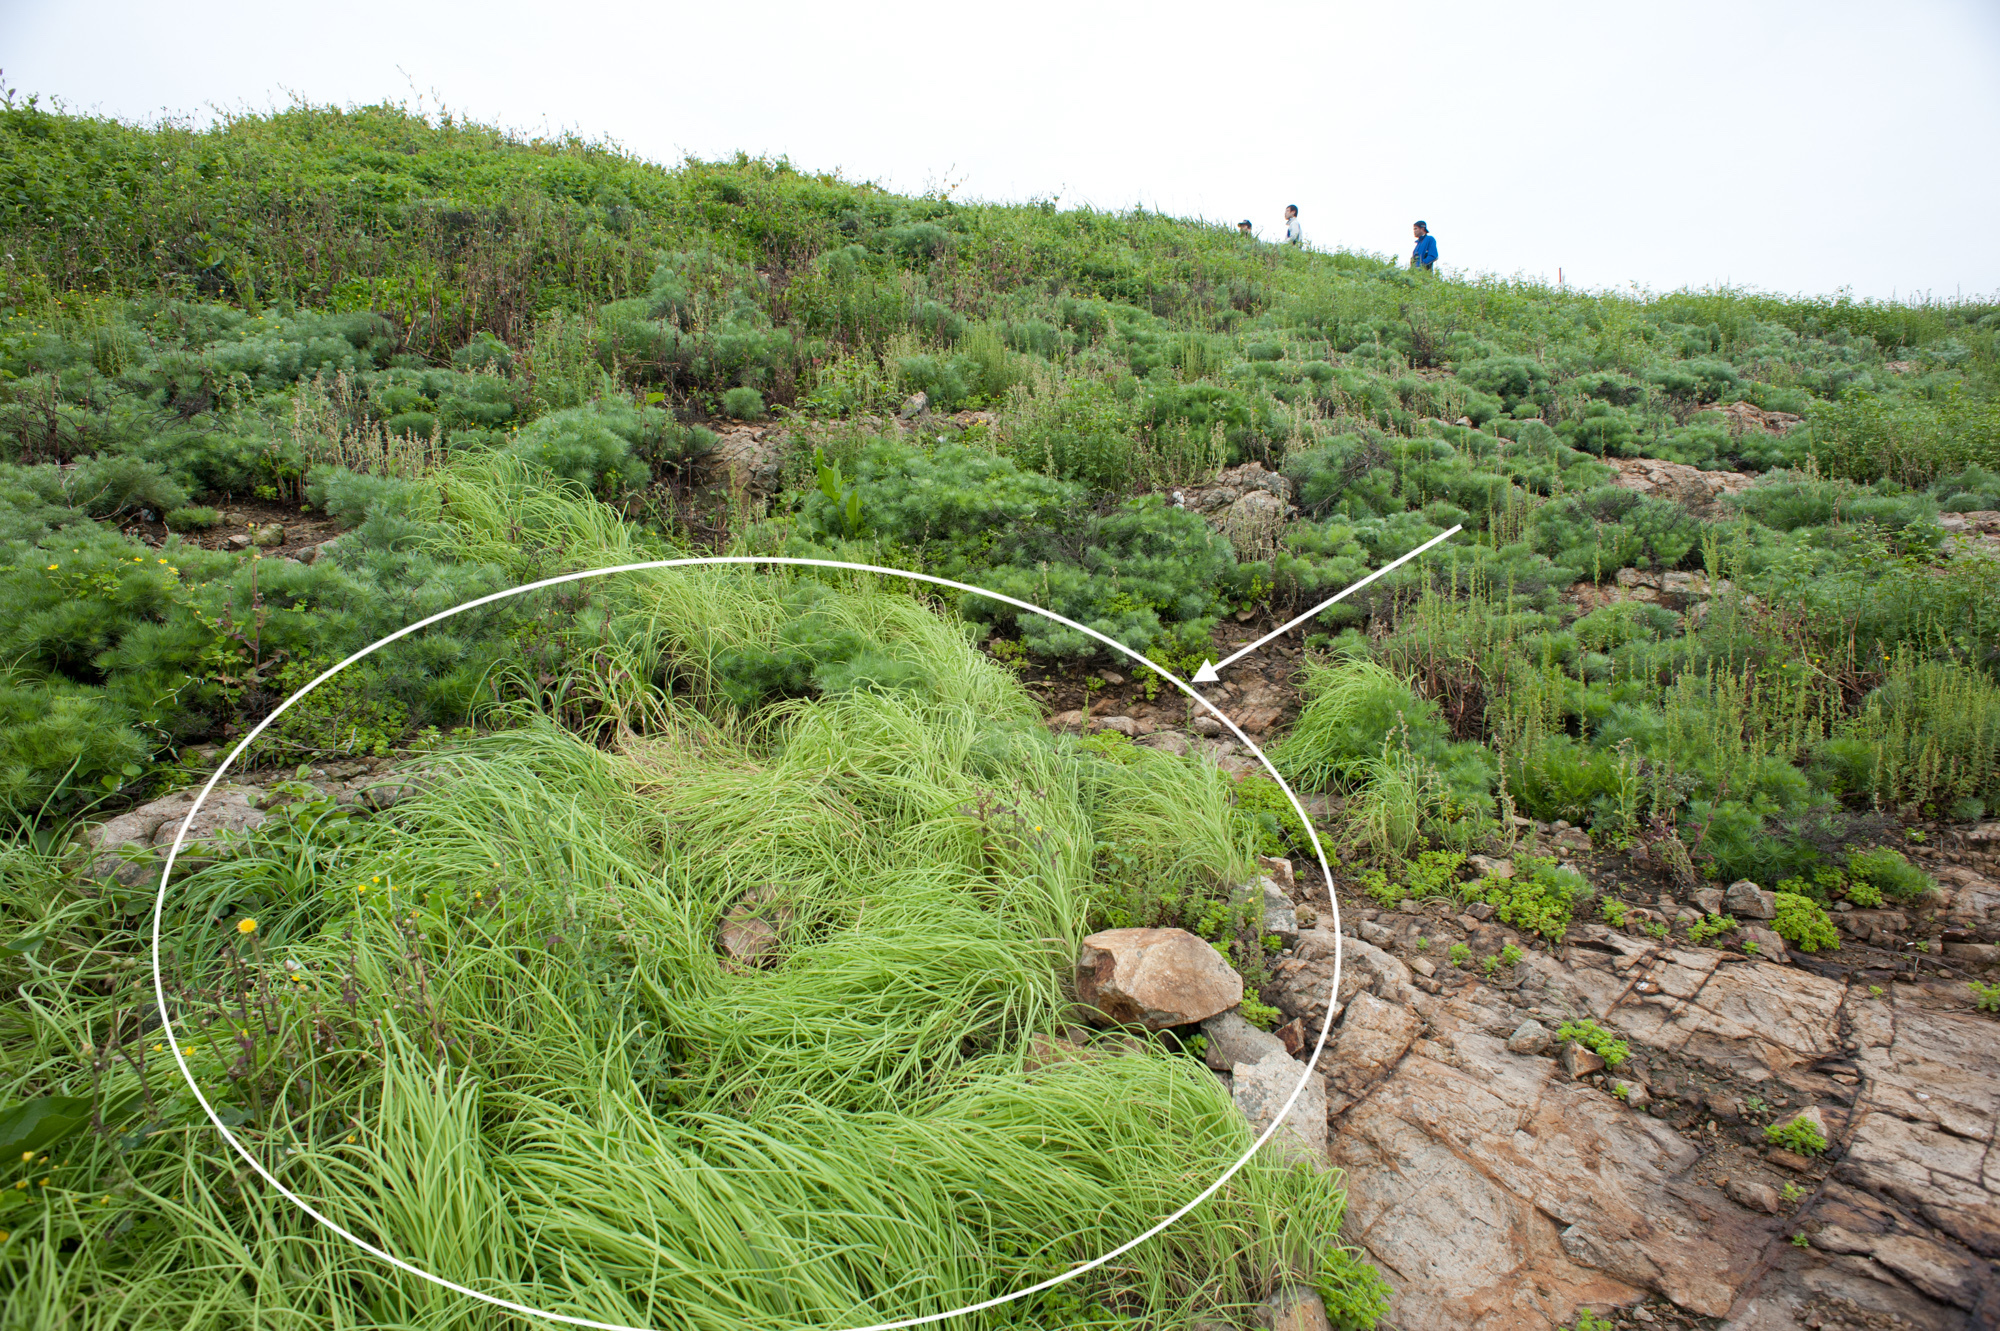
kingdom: Plantae
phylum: Tracheophyta
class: Liliopsida
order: Asparagales
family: Amaryllidaceae
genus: Allium
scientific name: Allium macrostemon
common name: Chinese garlic
